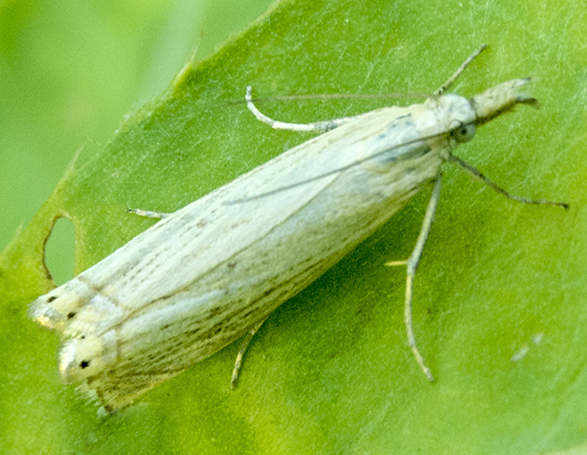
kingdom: Animalia
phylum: Arthropoda
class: Insecta
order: Lepidoptera
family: Crambidae
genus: Chrysoteuchia
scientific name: Chrysoteuchia culmella
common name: Garden grass-veneer
